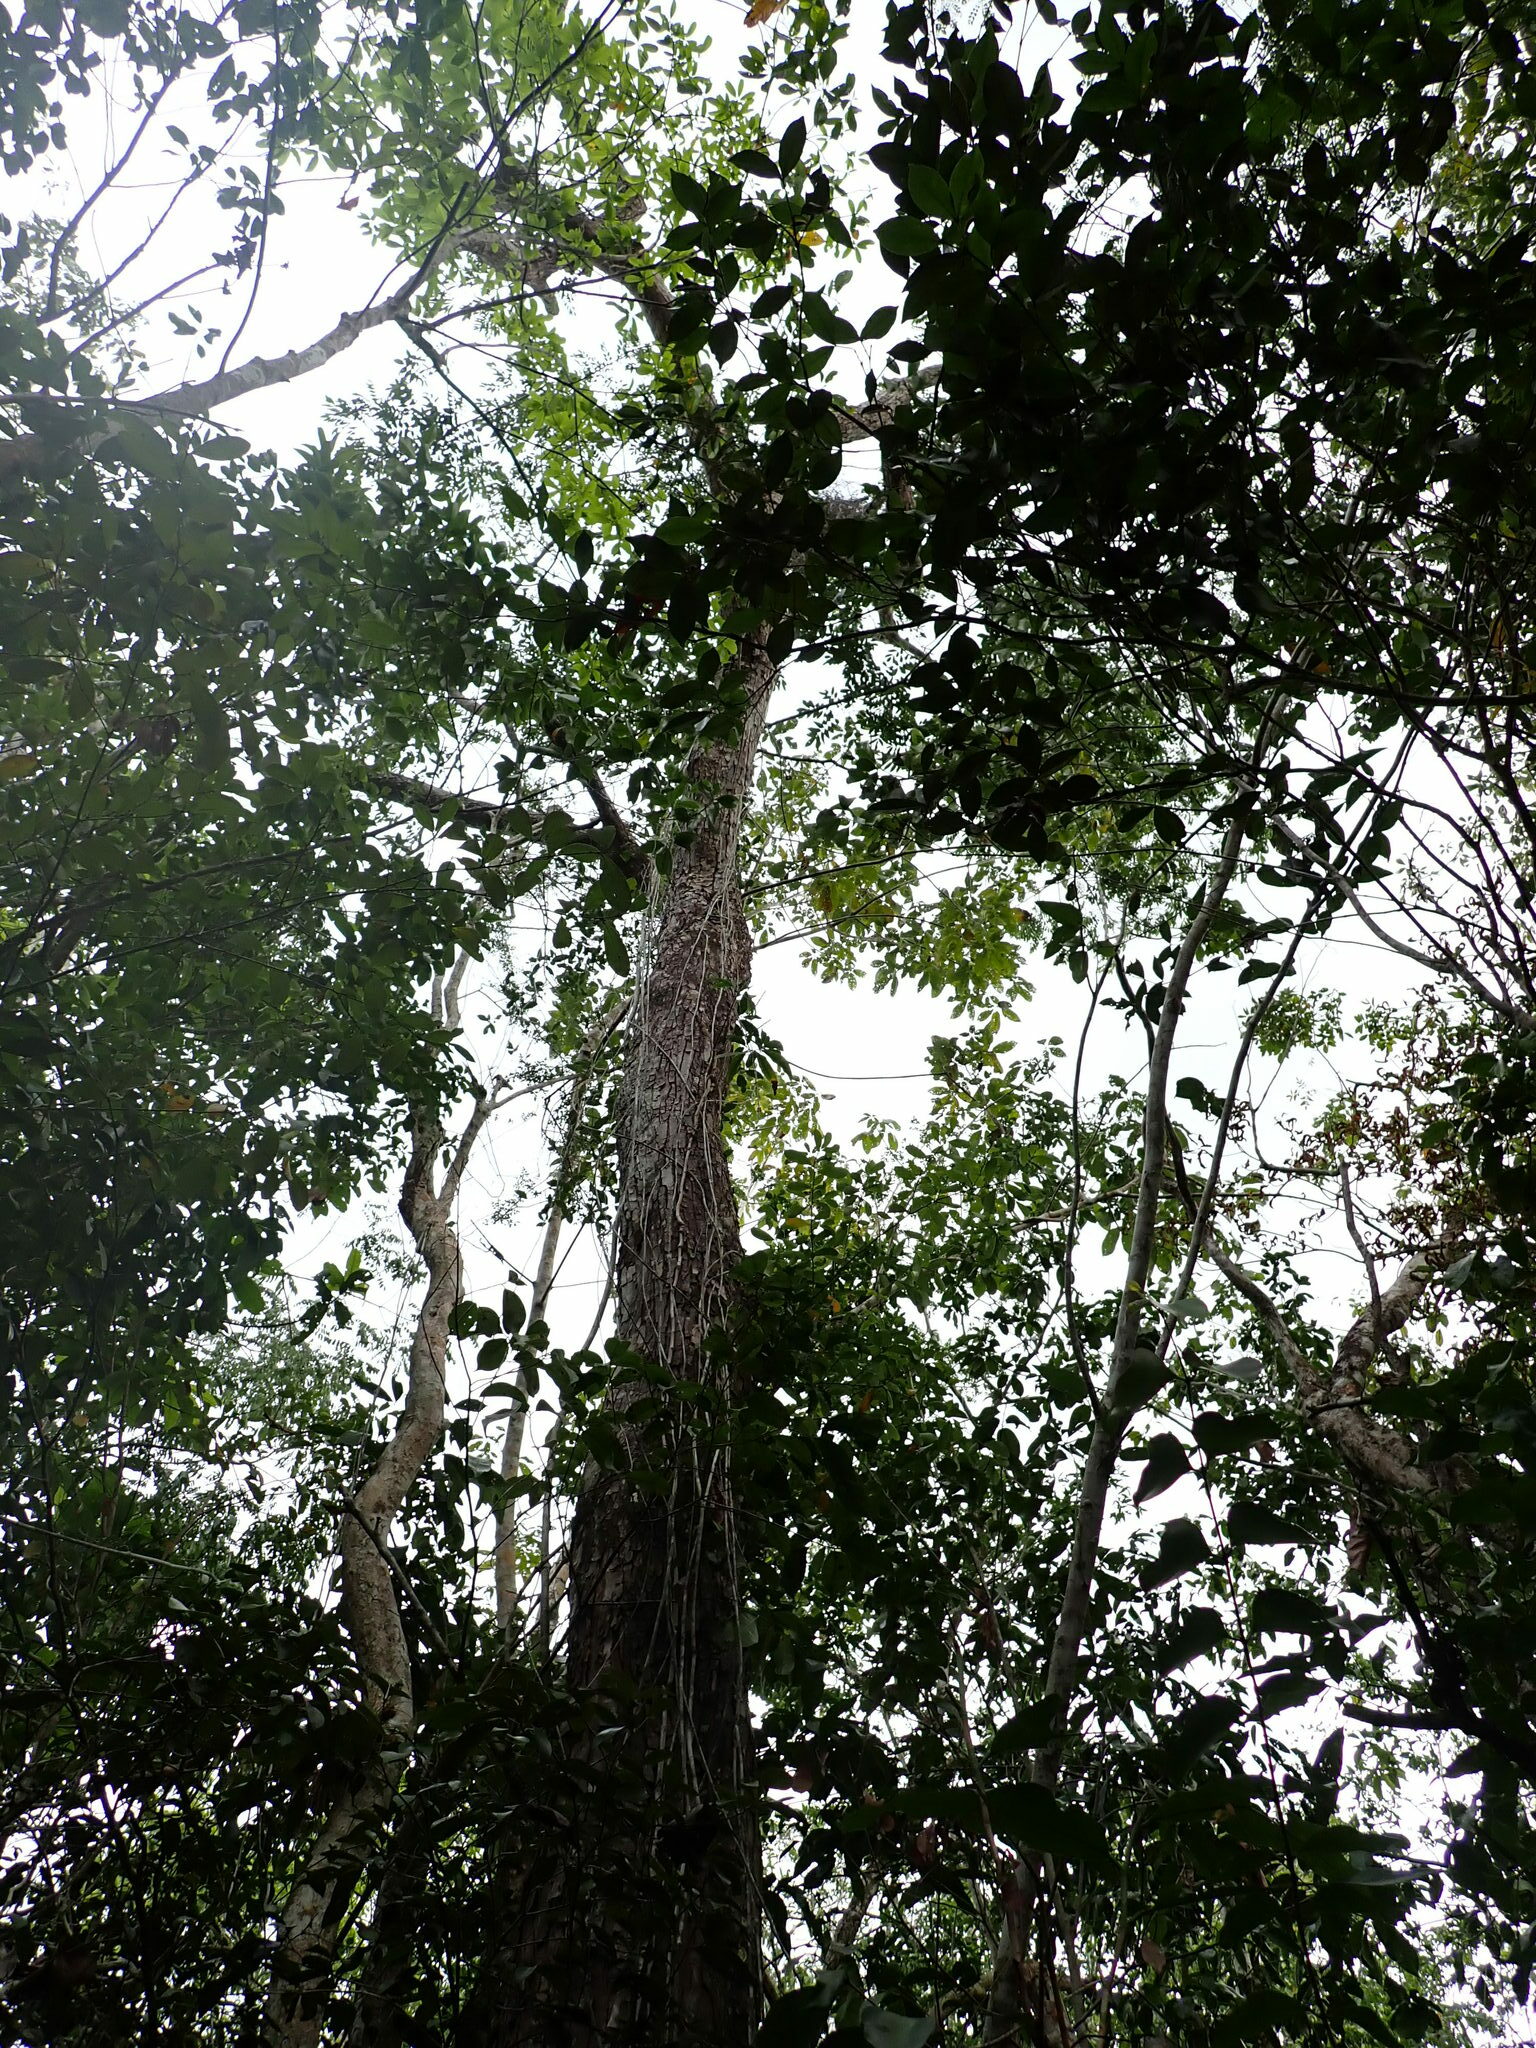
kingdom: Plantae
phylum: Tracheophyta
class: Magnoliopsida
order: Fabales
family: Fabaceae
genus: Swartzia
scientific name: Swartzia cubensis
